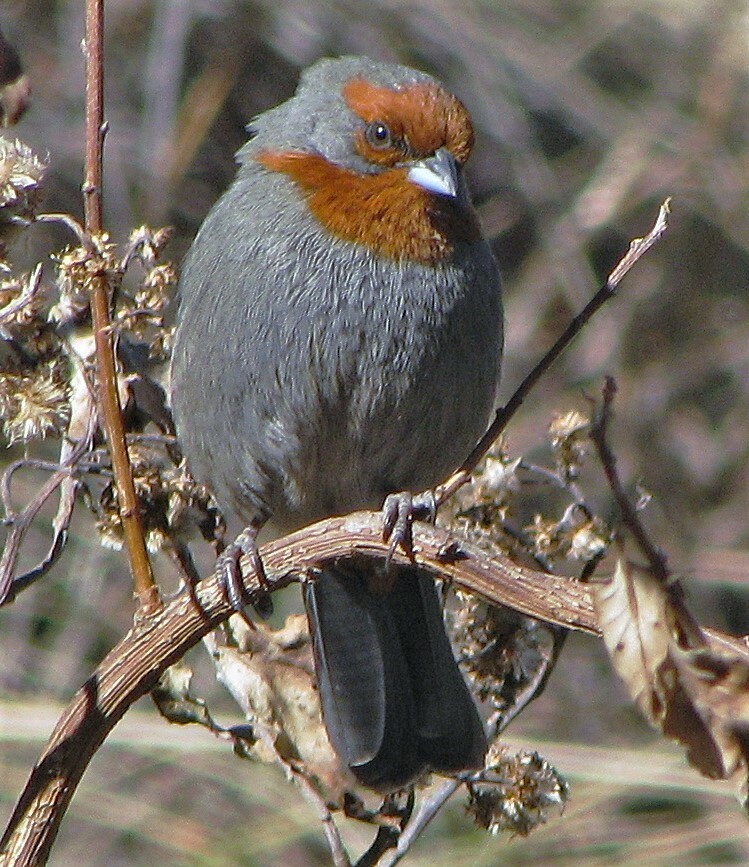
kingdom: Animalia
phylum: Chordata
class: Aves
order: Passeriformes
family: Thraupidae
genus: Poospiza
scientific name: Poospiza baeri
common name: Tucuman mountain-finch
